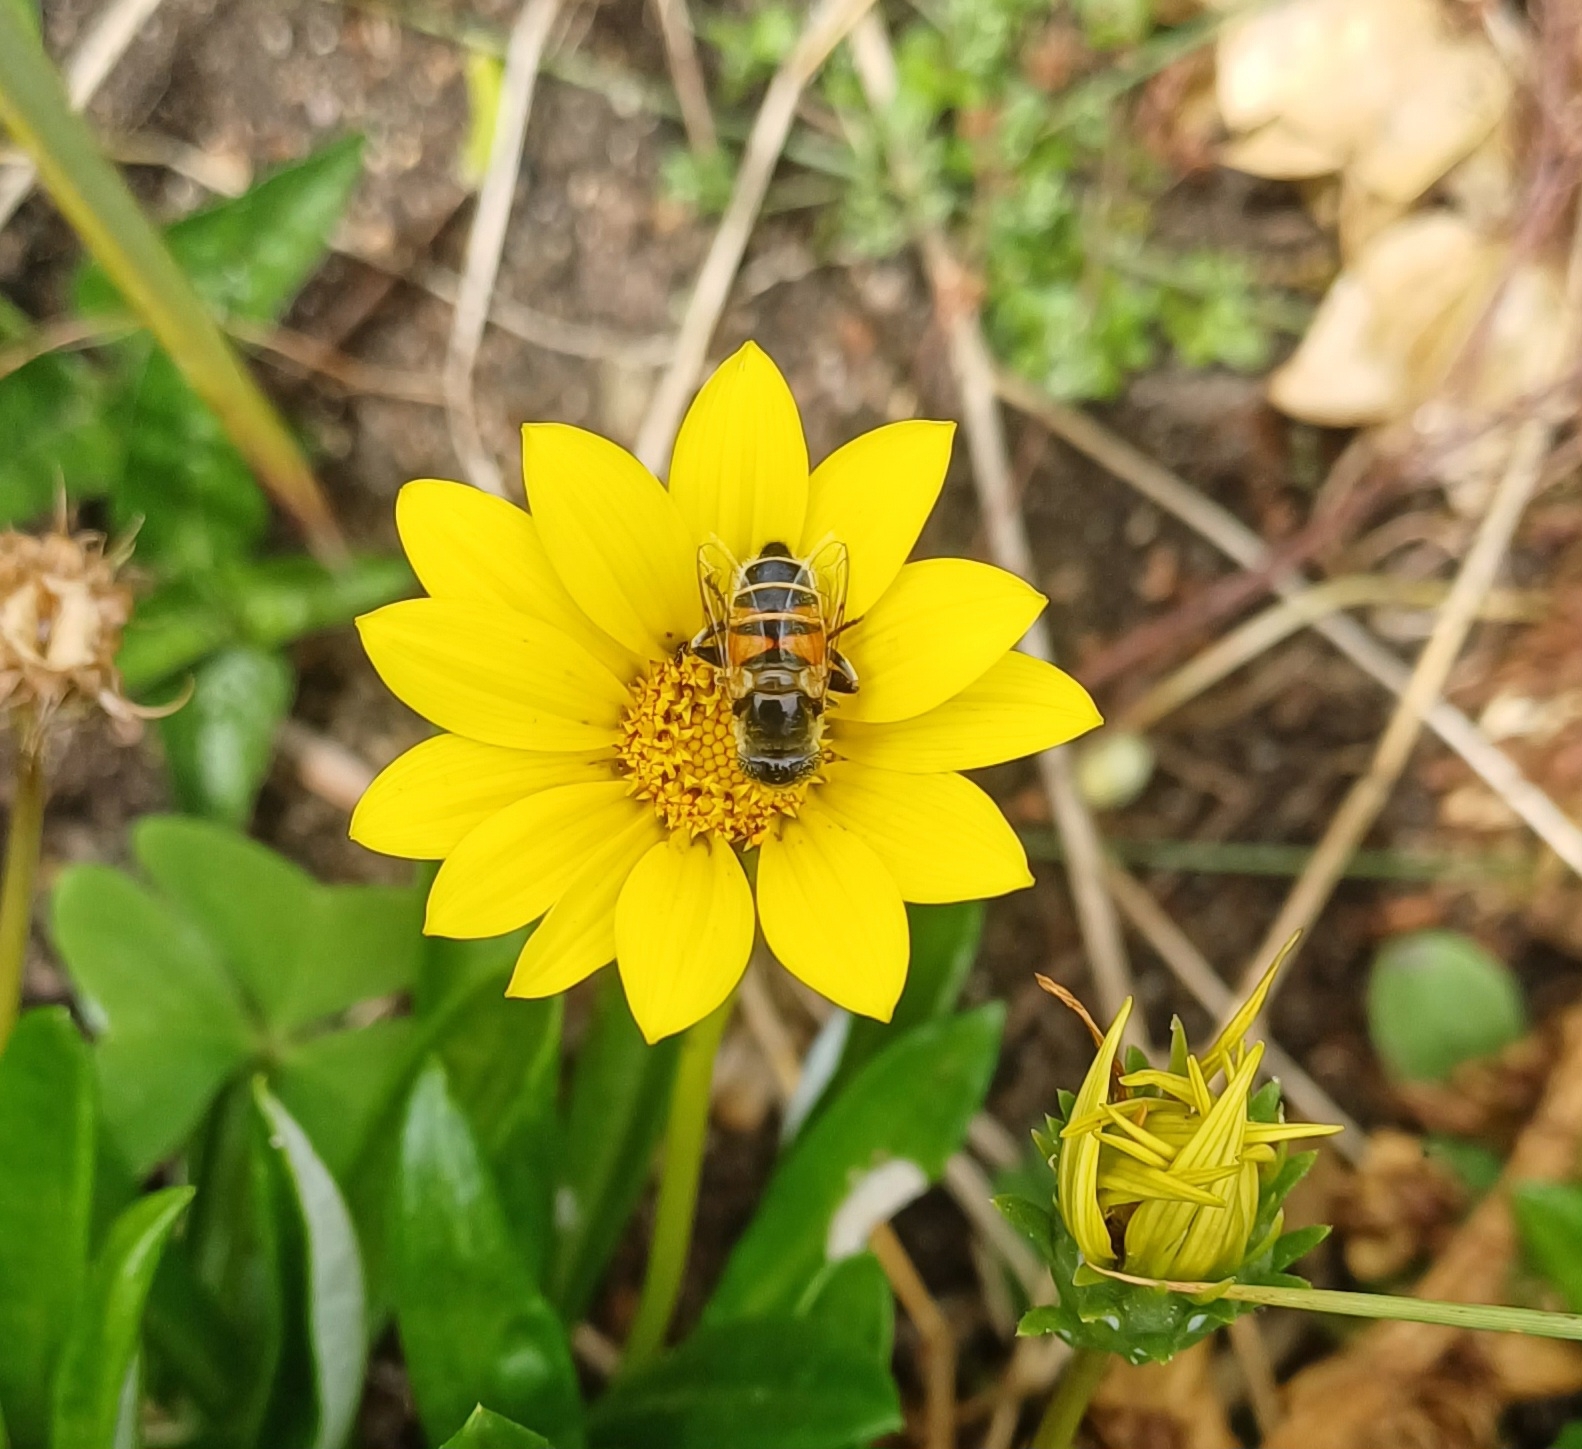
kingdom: Animalia
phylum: Arthropoda
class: Insecta
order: Diptera
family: Syrphidae
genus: Eristalinus
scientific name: Eristalinus modestus
